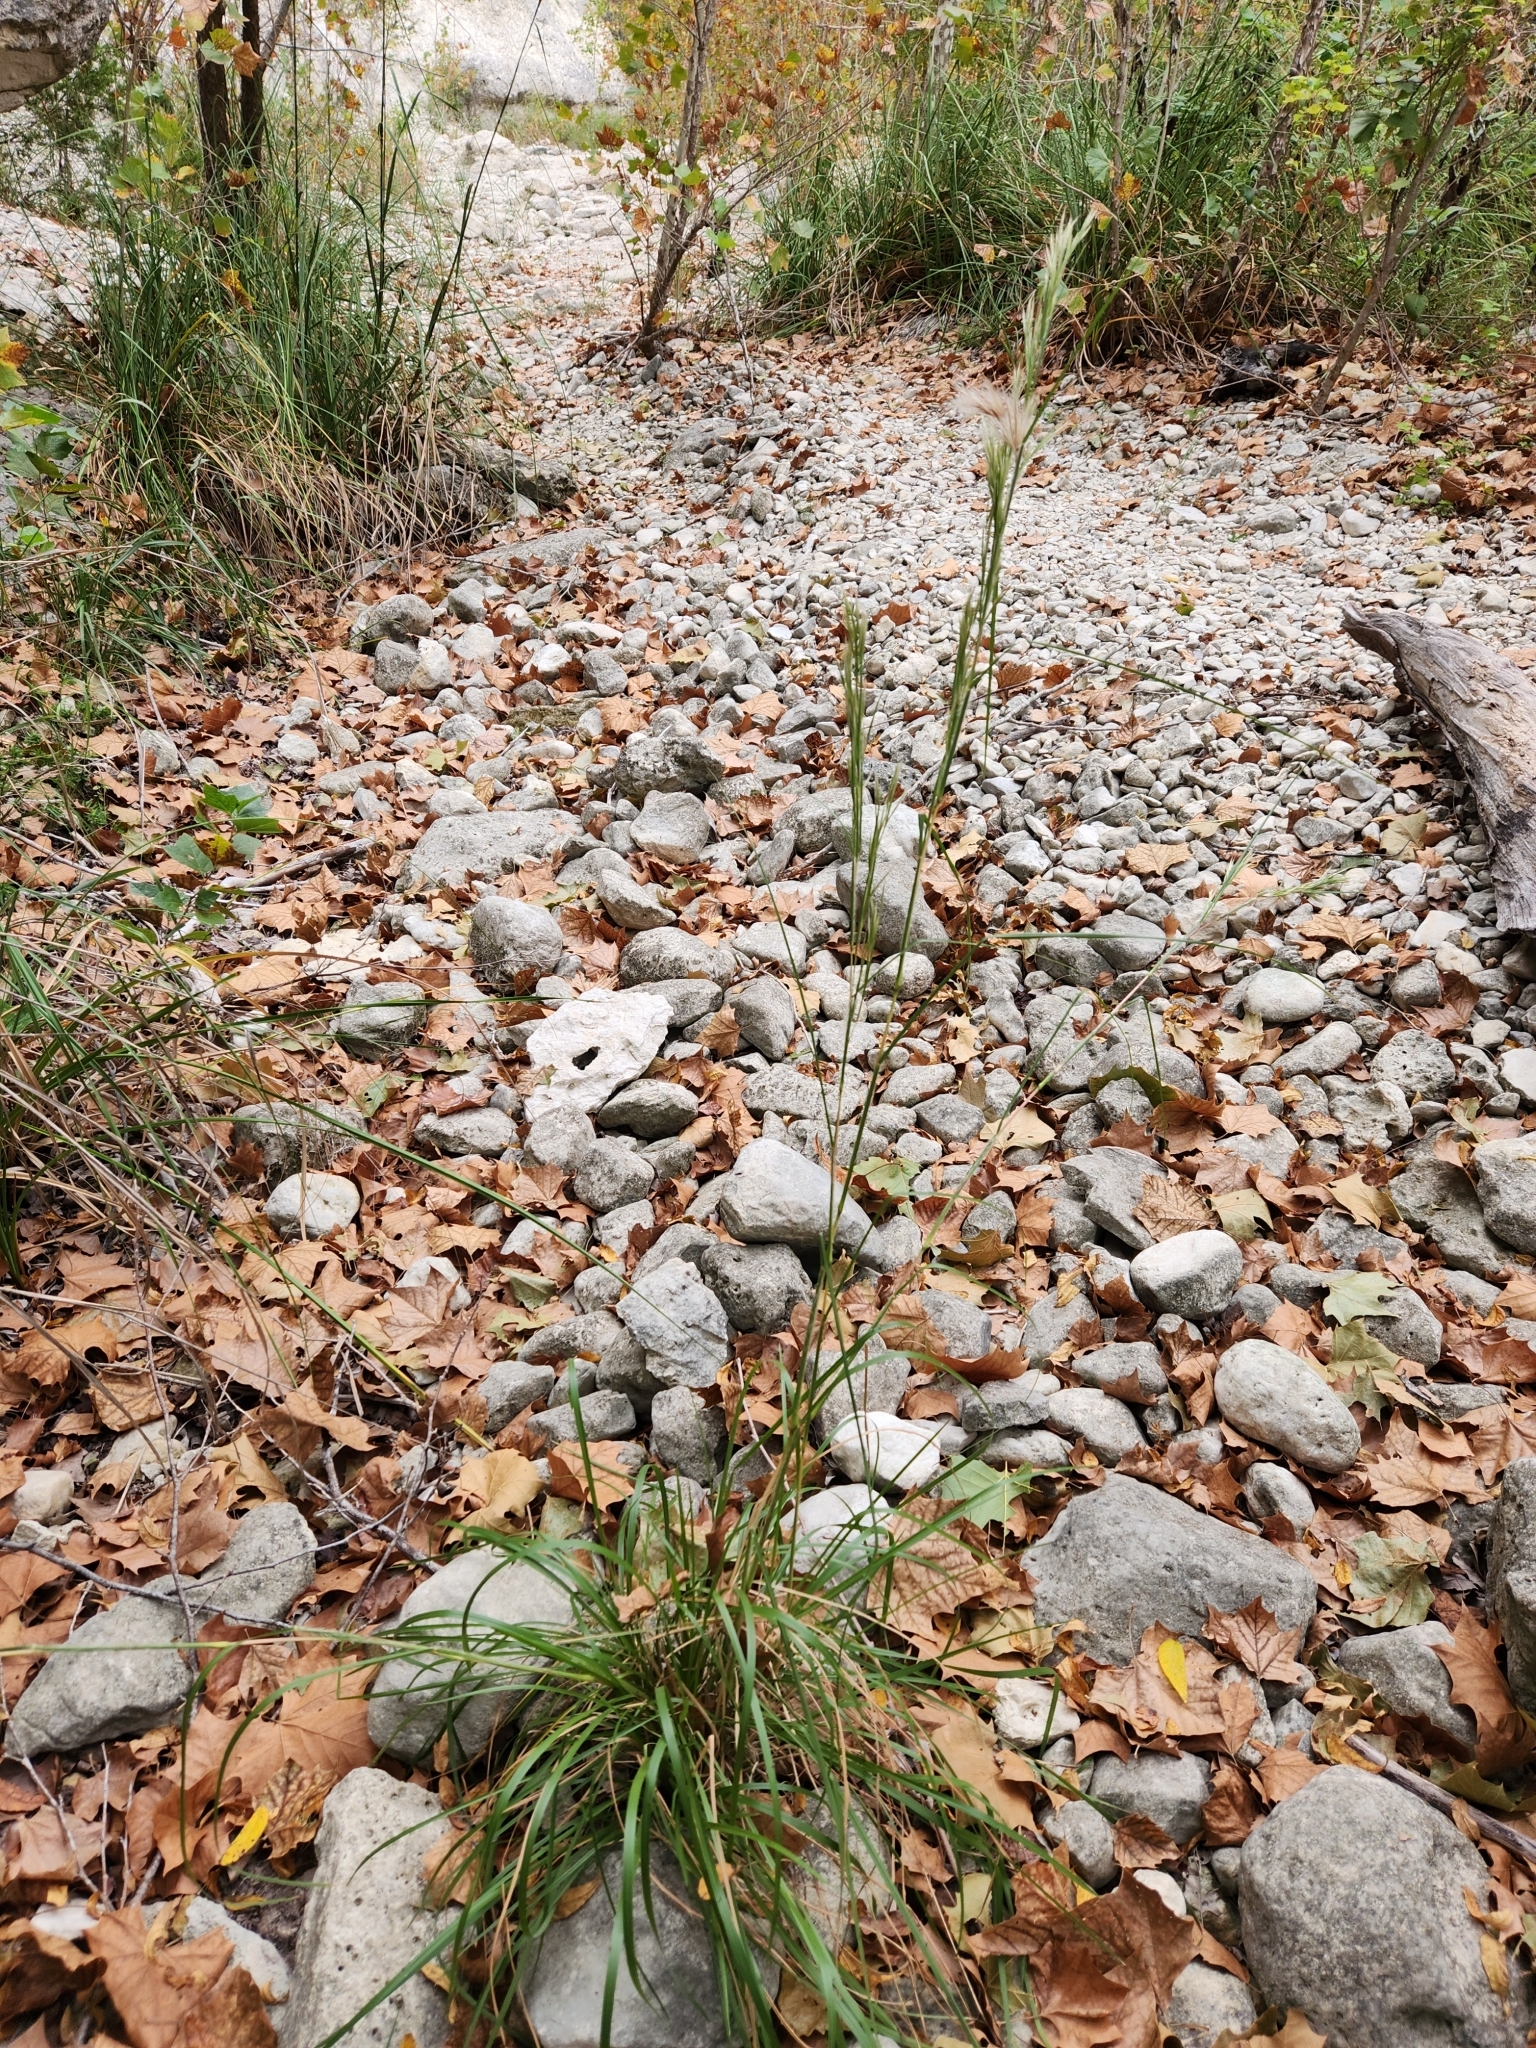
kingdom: Plantae
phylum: Tracheophyta
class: Liliopsida
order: Poales
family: Poaceae
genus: Andropogon
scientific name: Andropogon tenuispatheus
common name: Bushy bluestem
